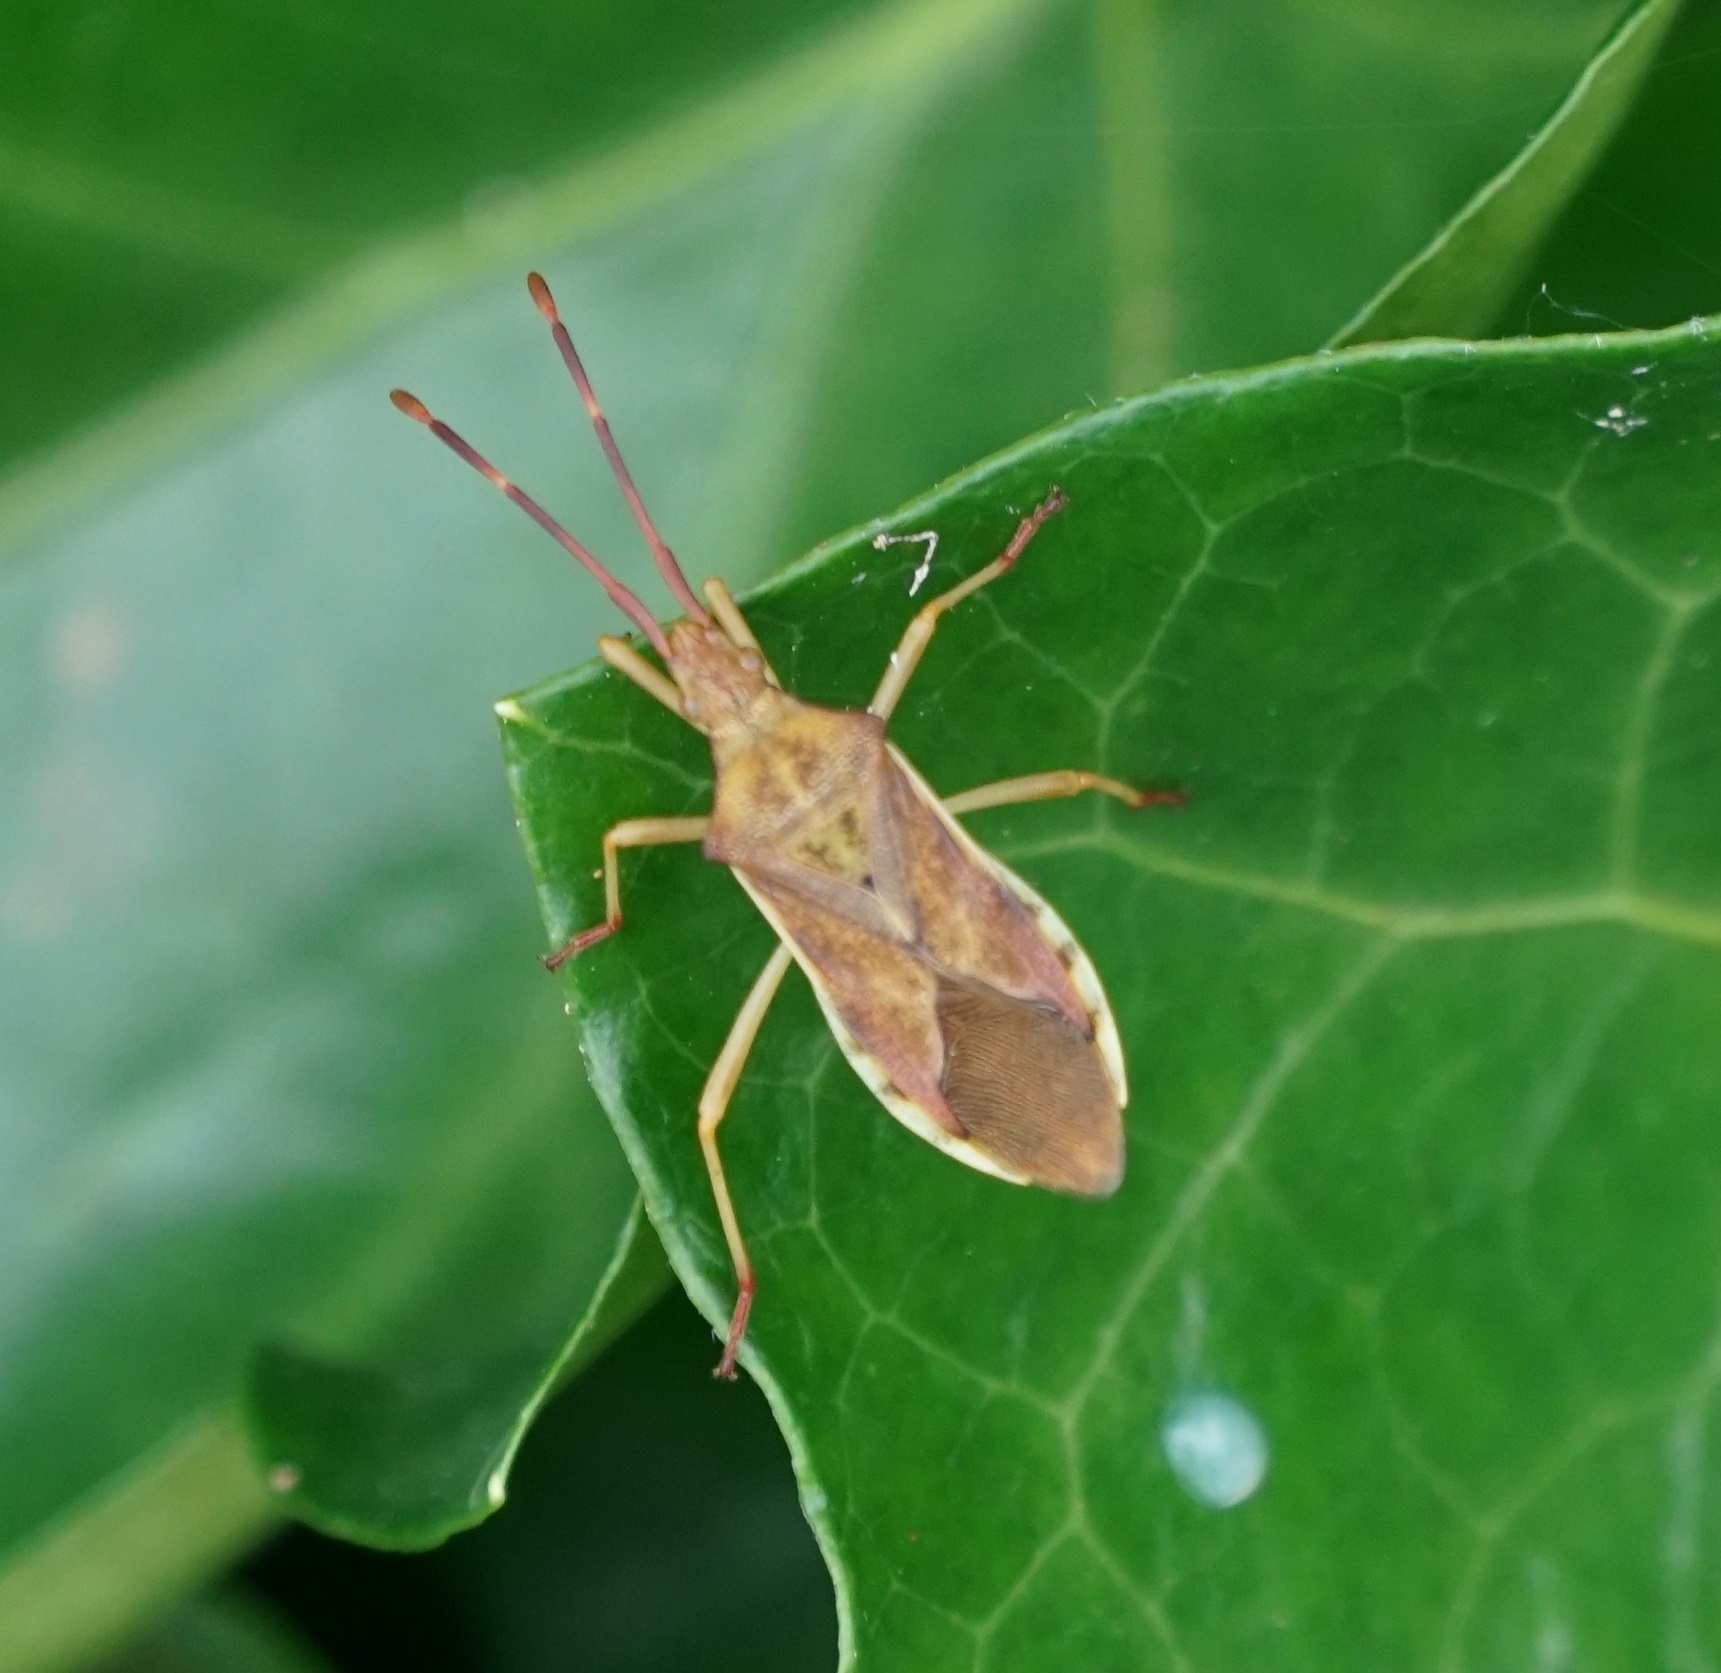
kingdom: Animalia
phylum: Arthropoda
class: Insecta
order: Hemiptera
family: Coreidae
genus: Gonocerus
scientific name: Gonocerus juniperi
